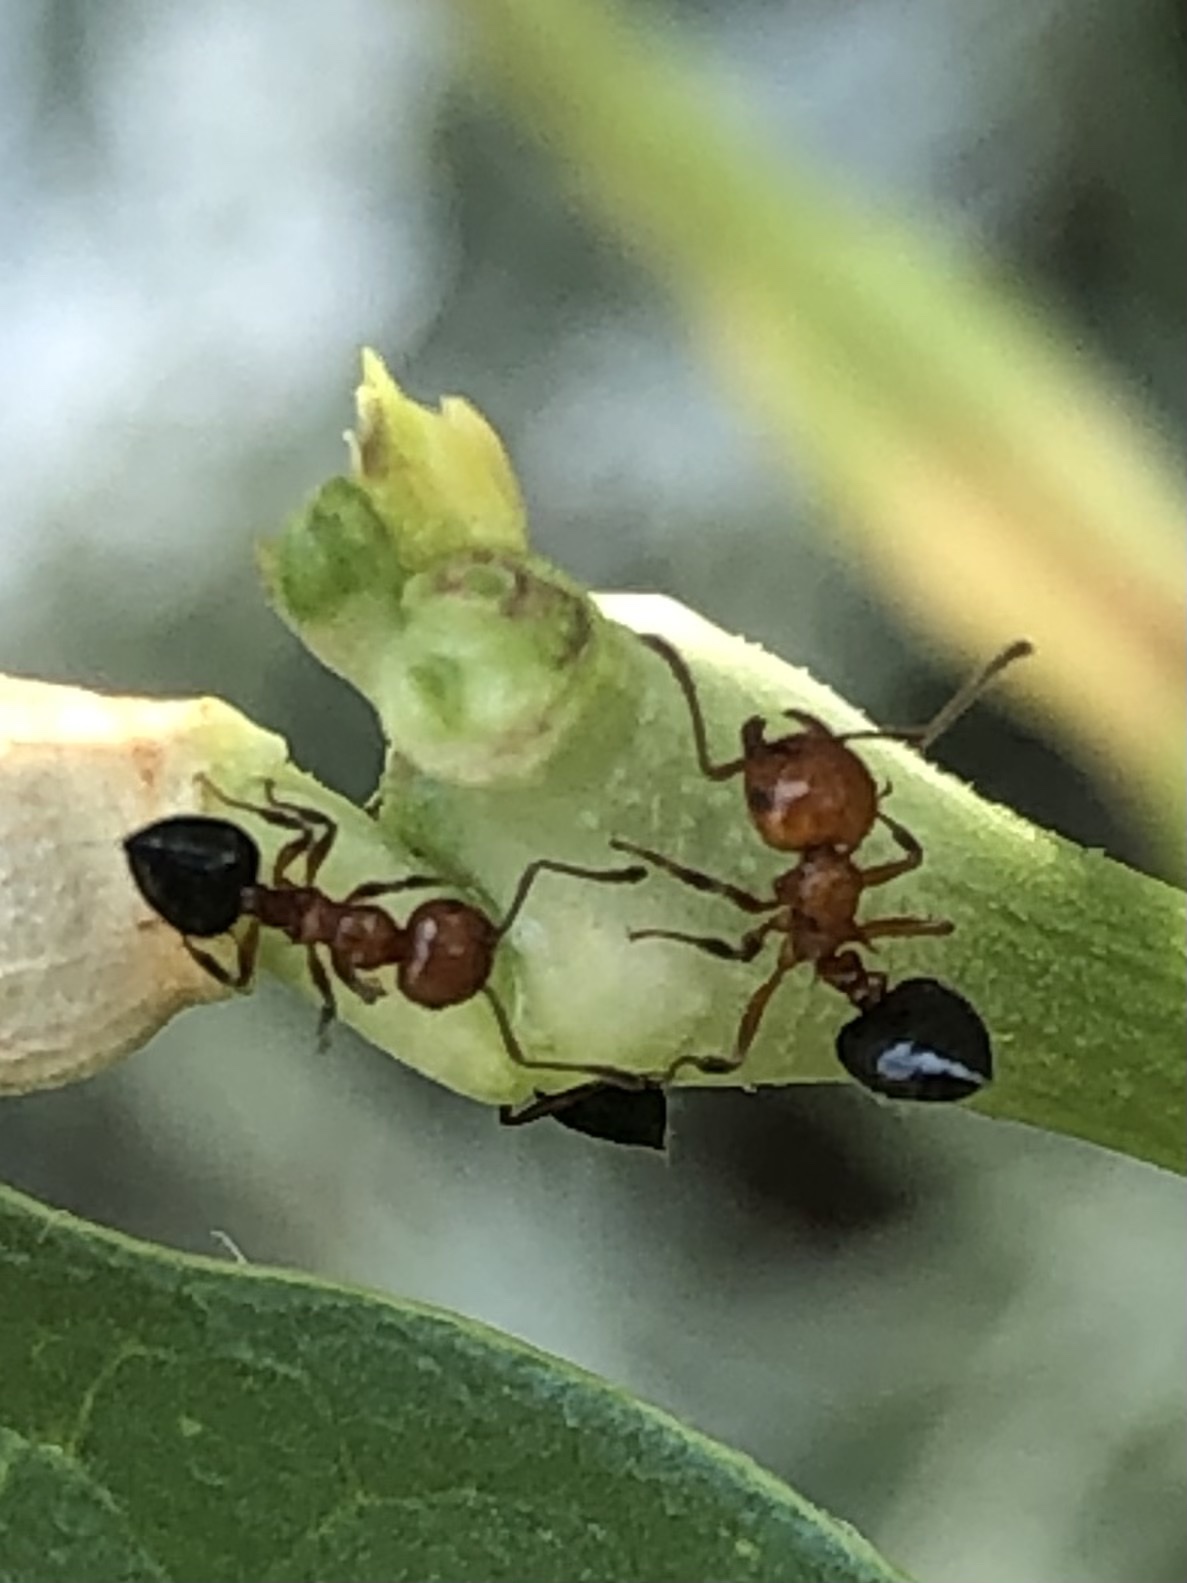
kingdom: Animalia
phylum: Arthropoda
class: Insecta
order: Hymenoptera
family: Formicidae
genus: Crematogaster
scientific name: Crematogaster laeviuscula
